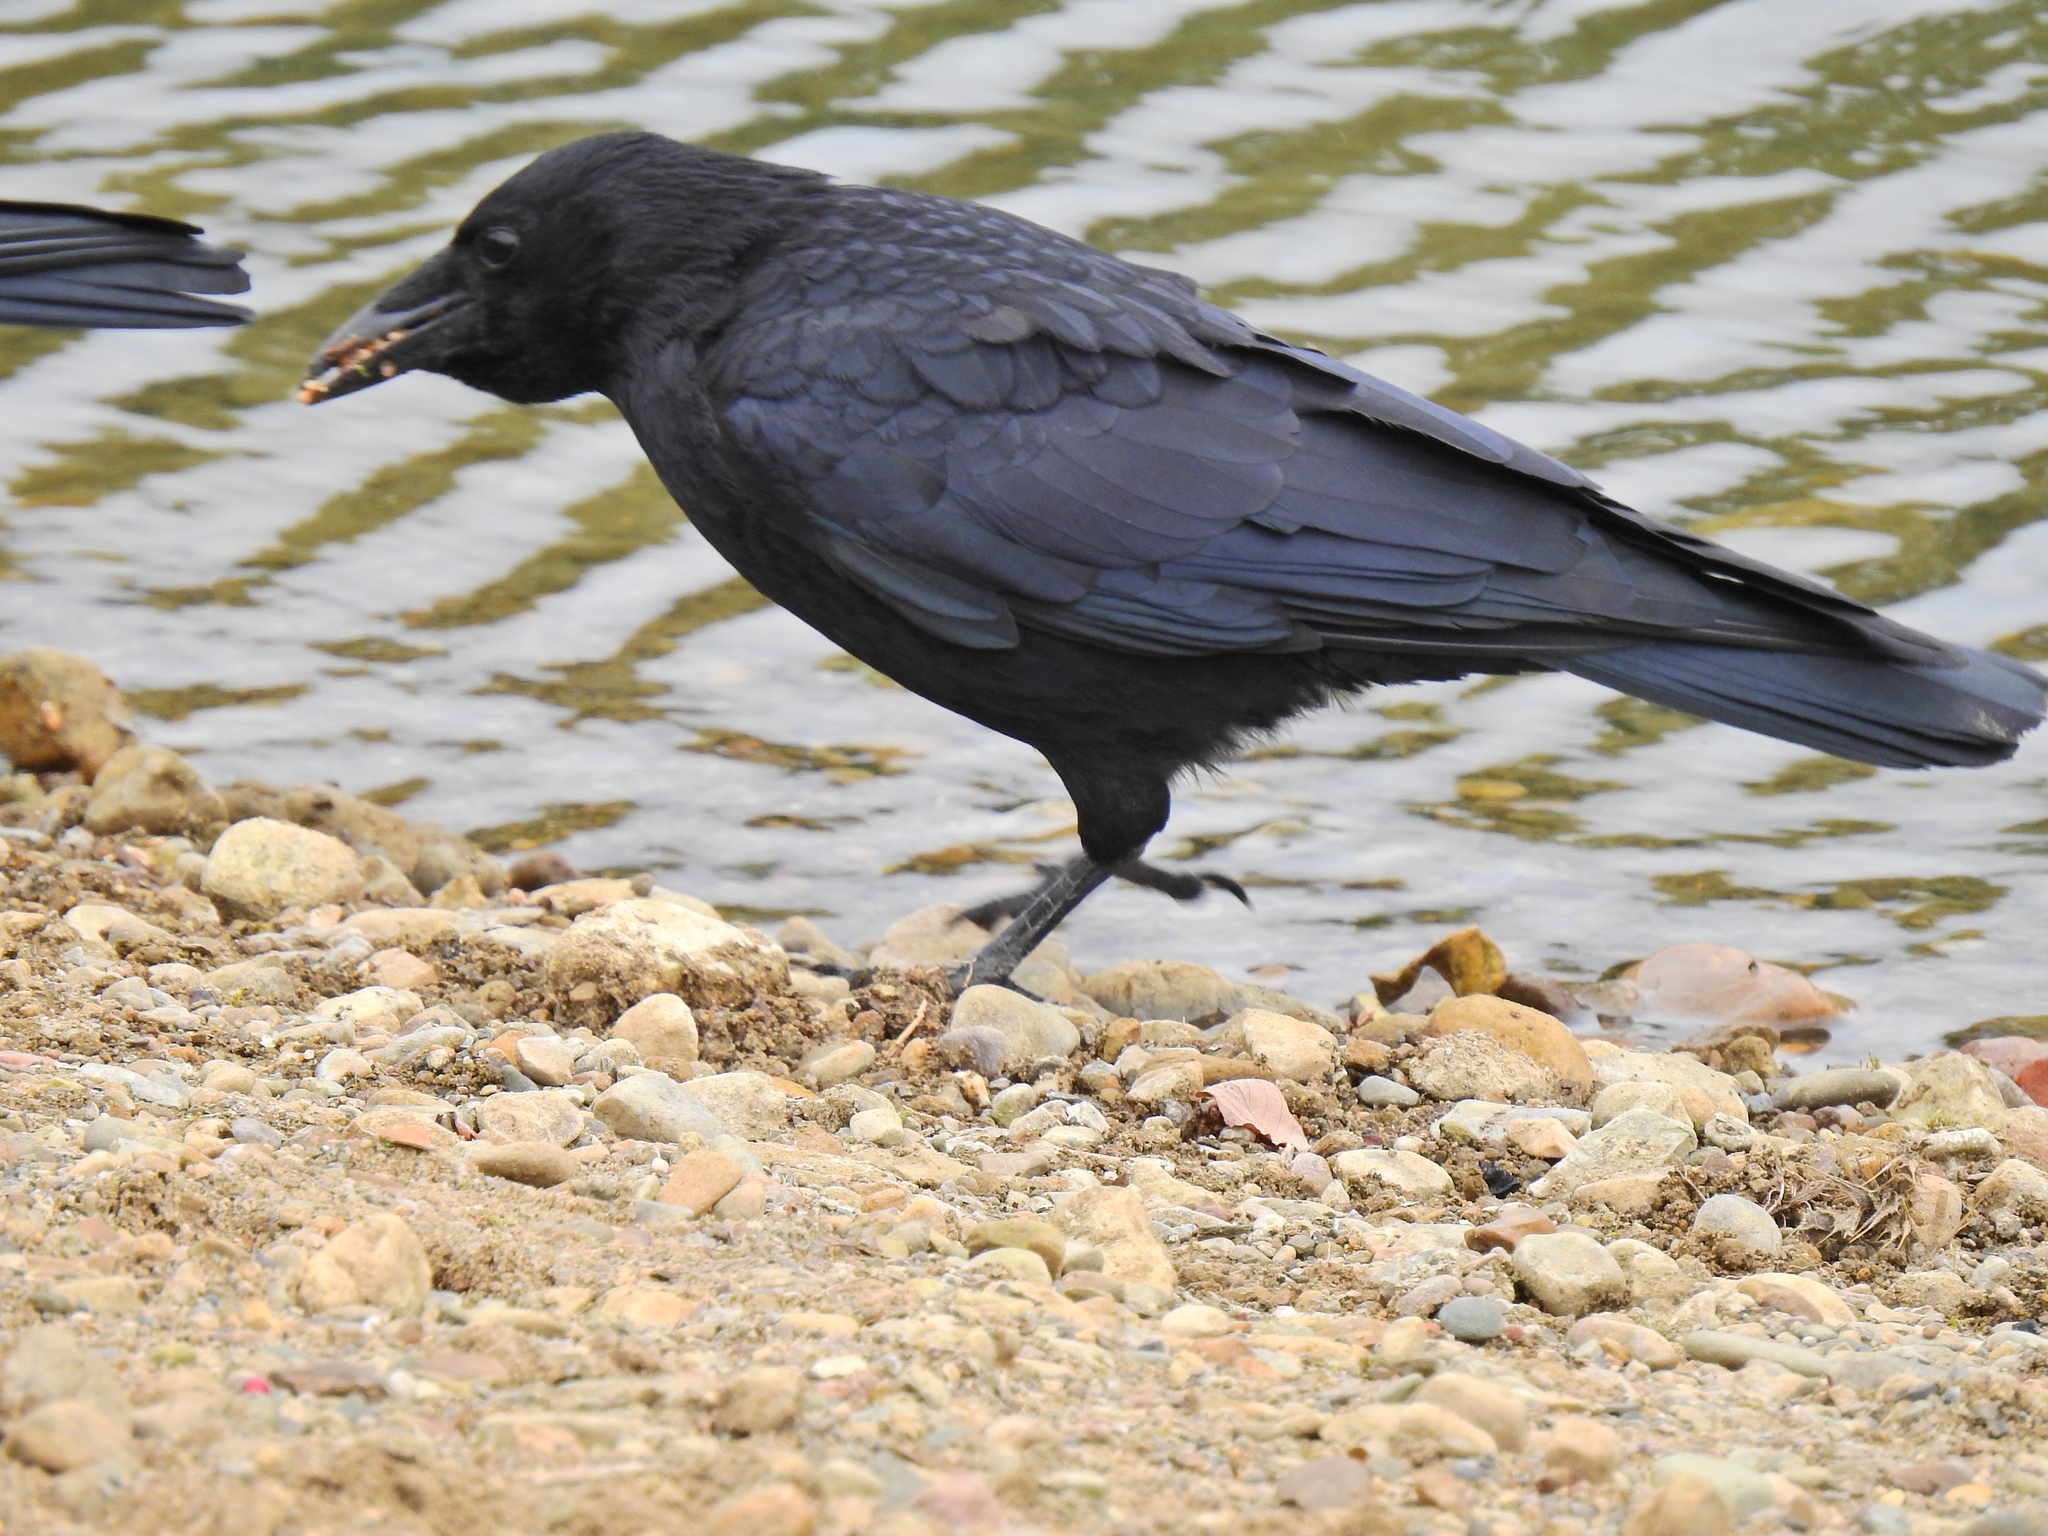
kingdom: Animalia
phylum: Chordata
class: Aves
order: Passeriformes
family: Corvidae
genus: Corvus
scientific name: Corvus corone
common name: Carrion crow
